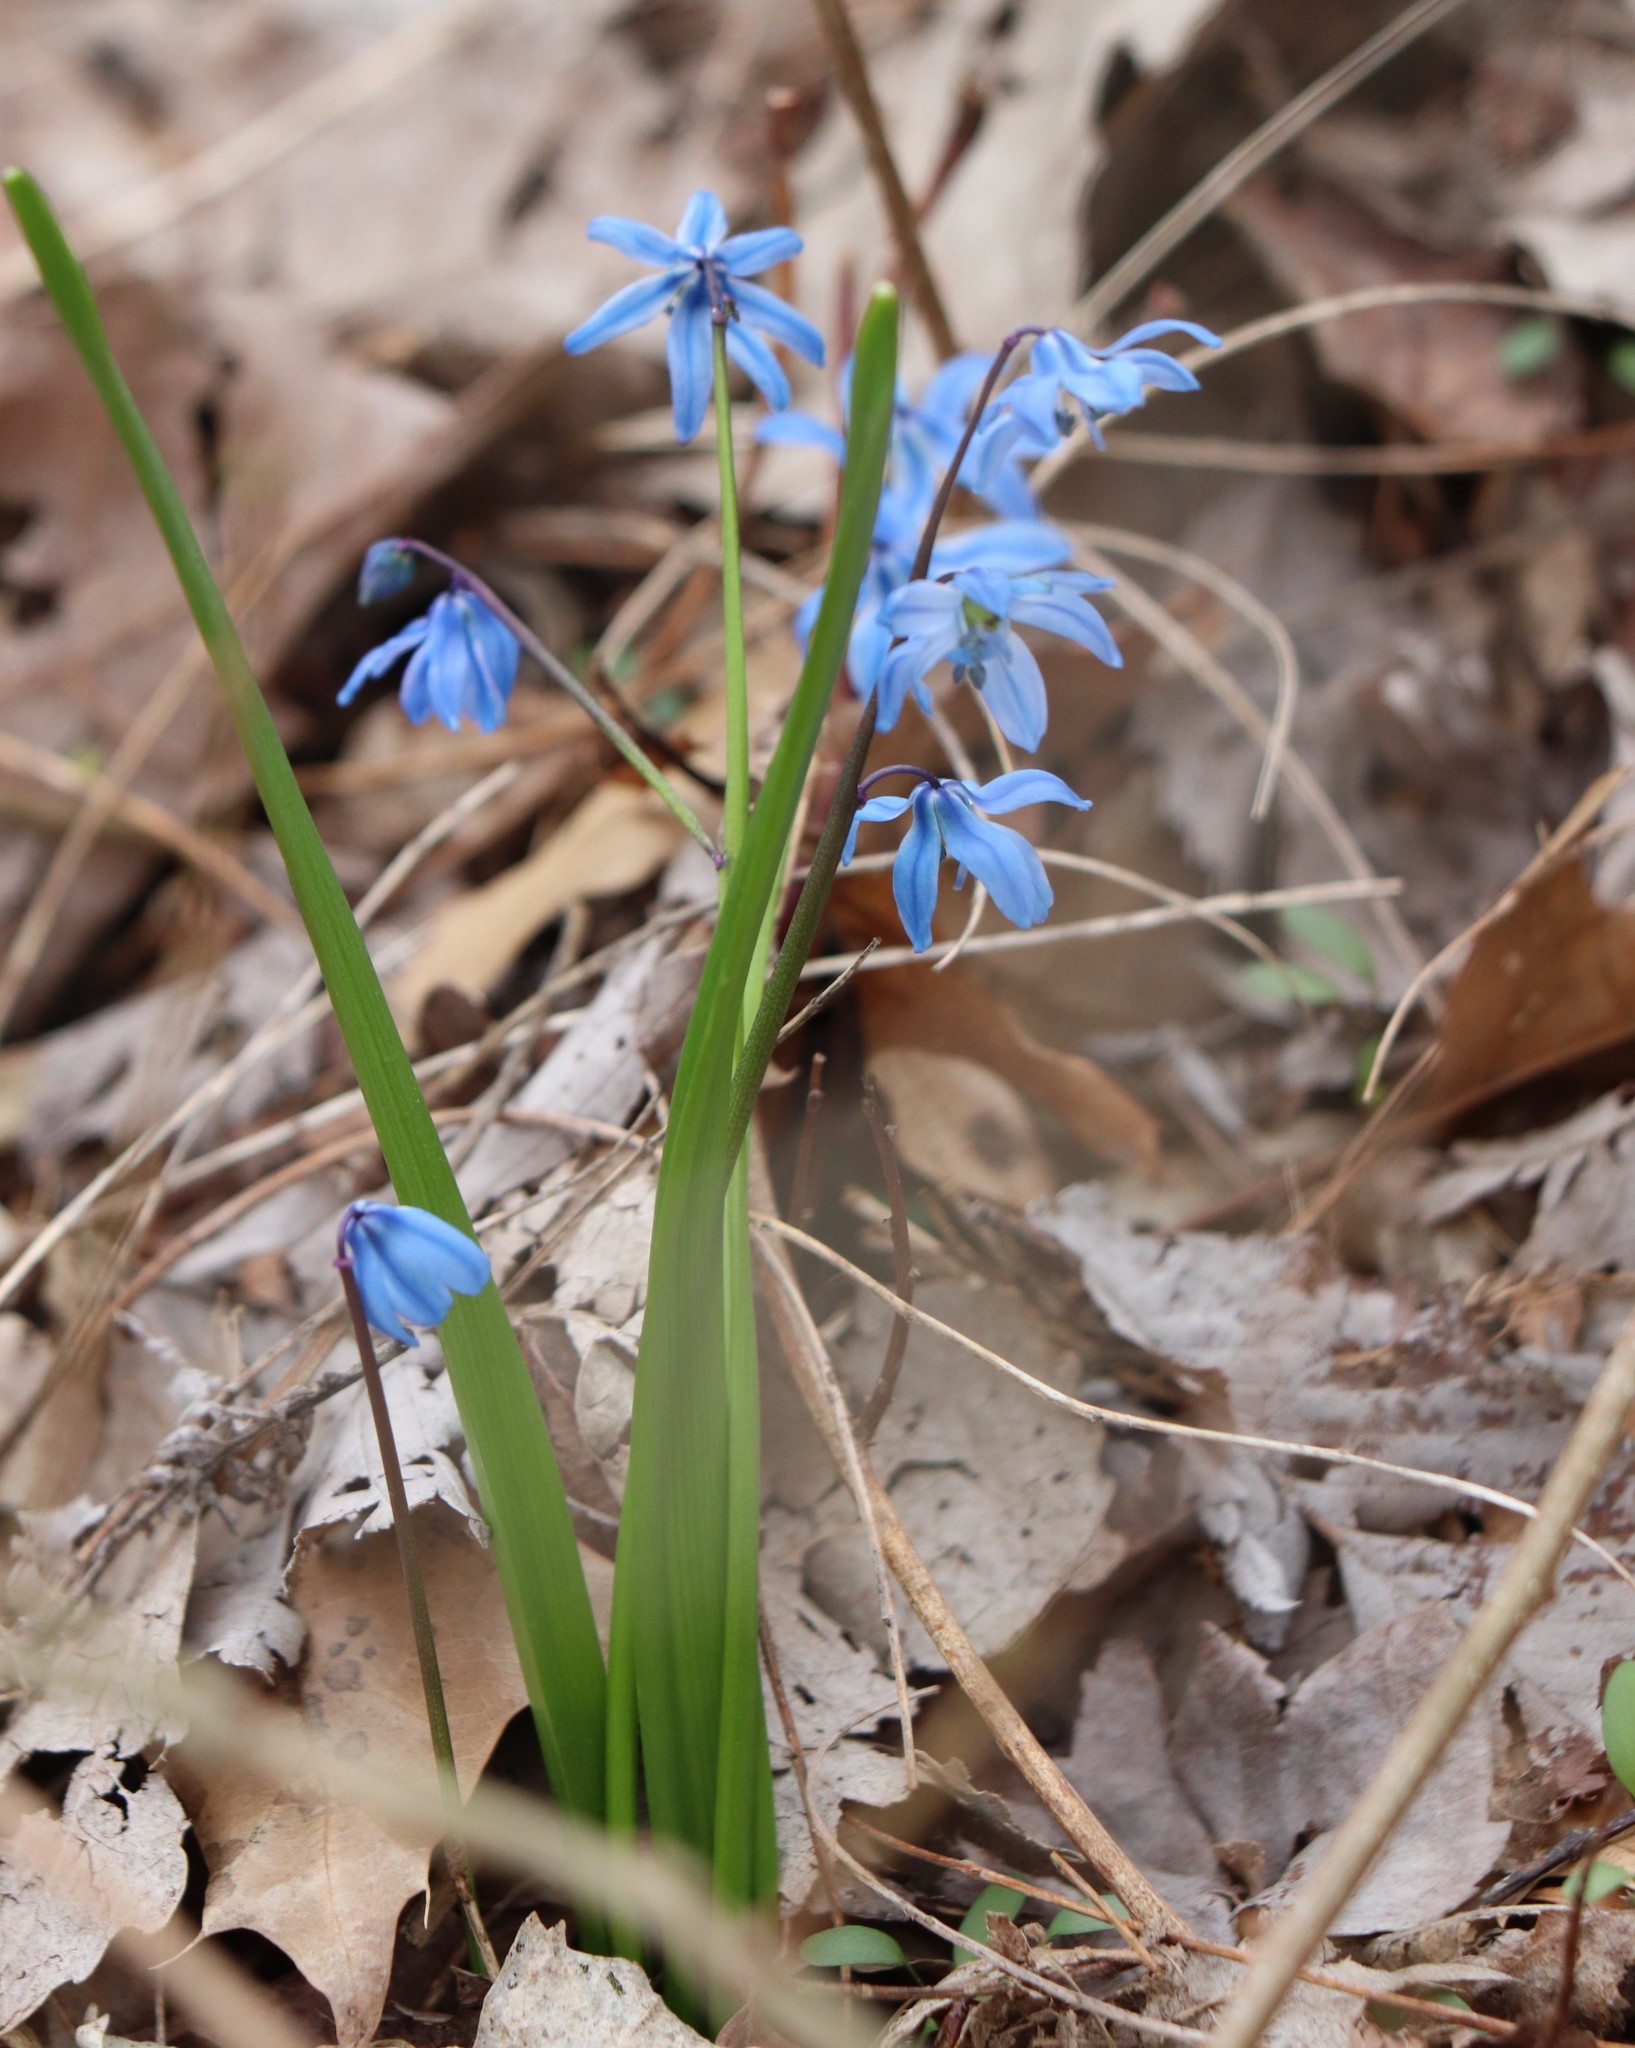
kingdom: Plantae
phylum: Tracheophyta
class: Liliopsida
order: Asparagales
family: Asparagaceae
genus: Scilla
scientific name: Scilla siberica
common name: Siberian squill
